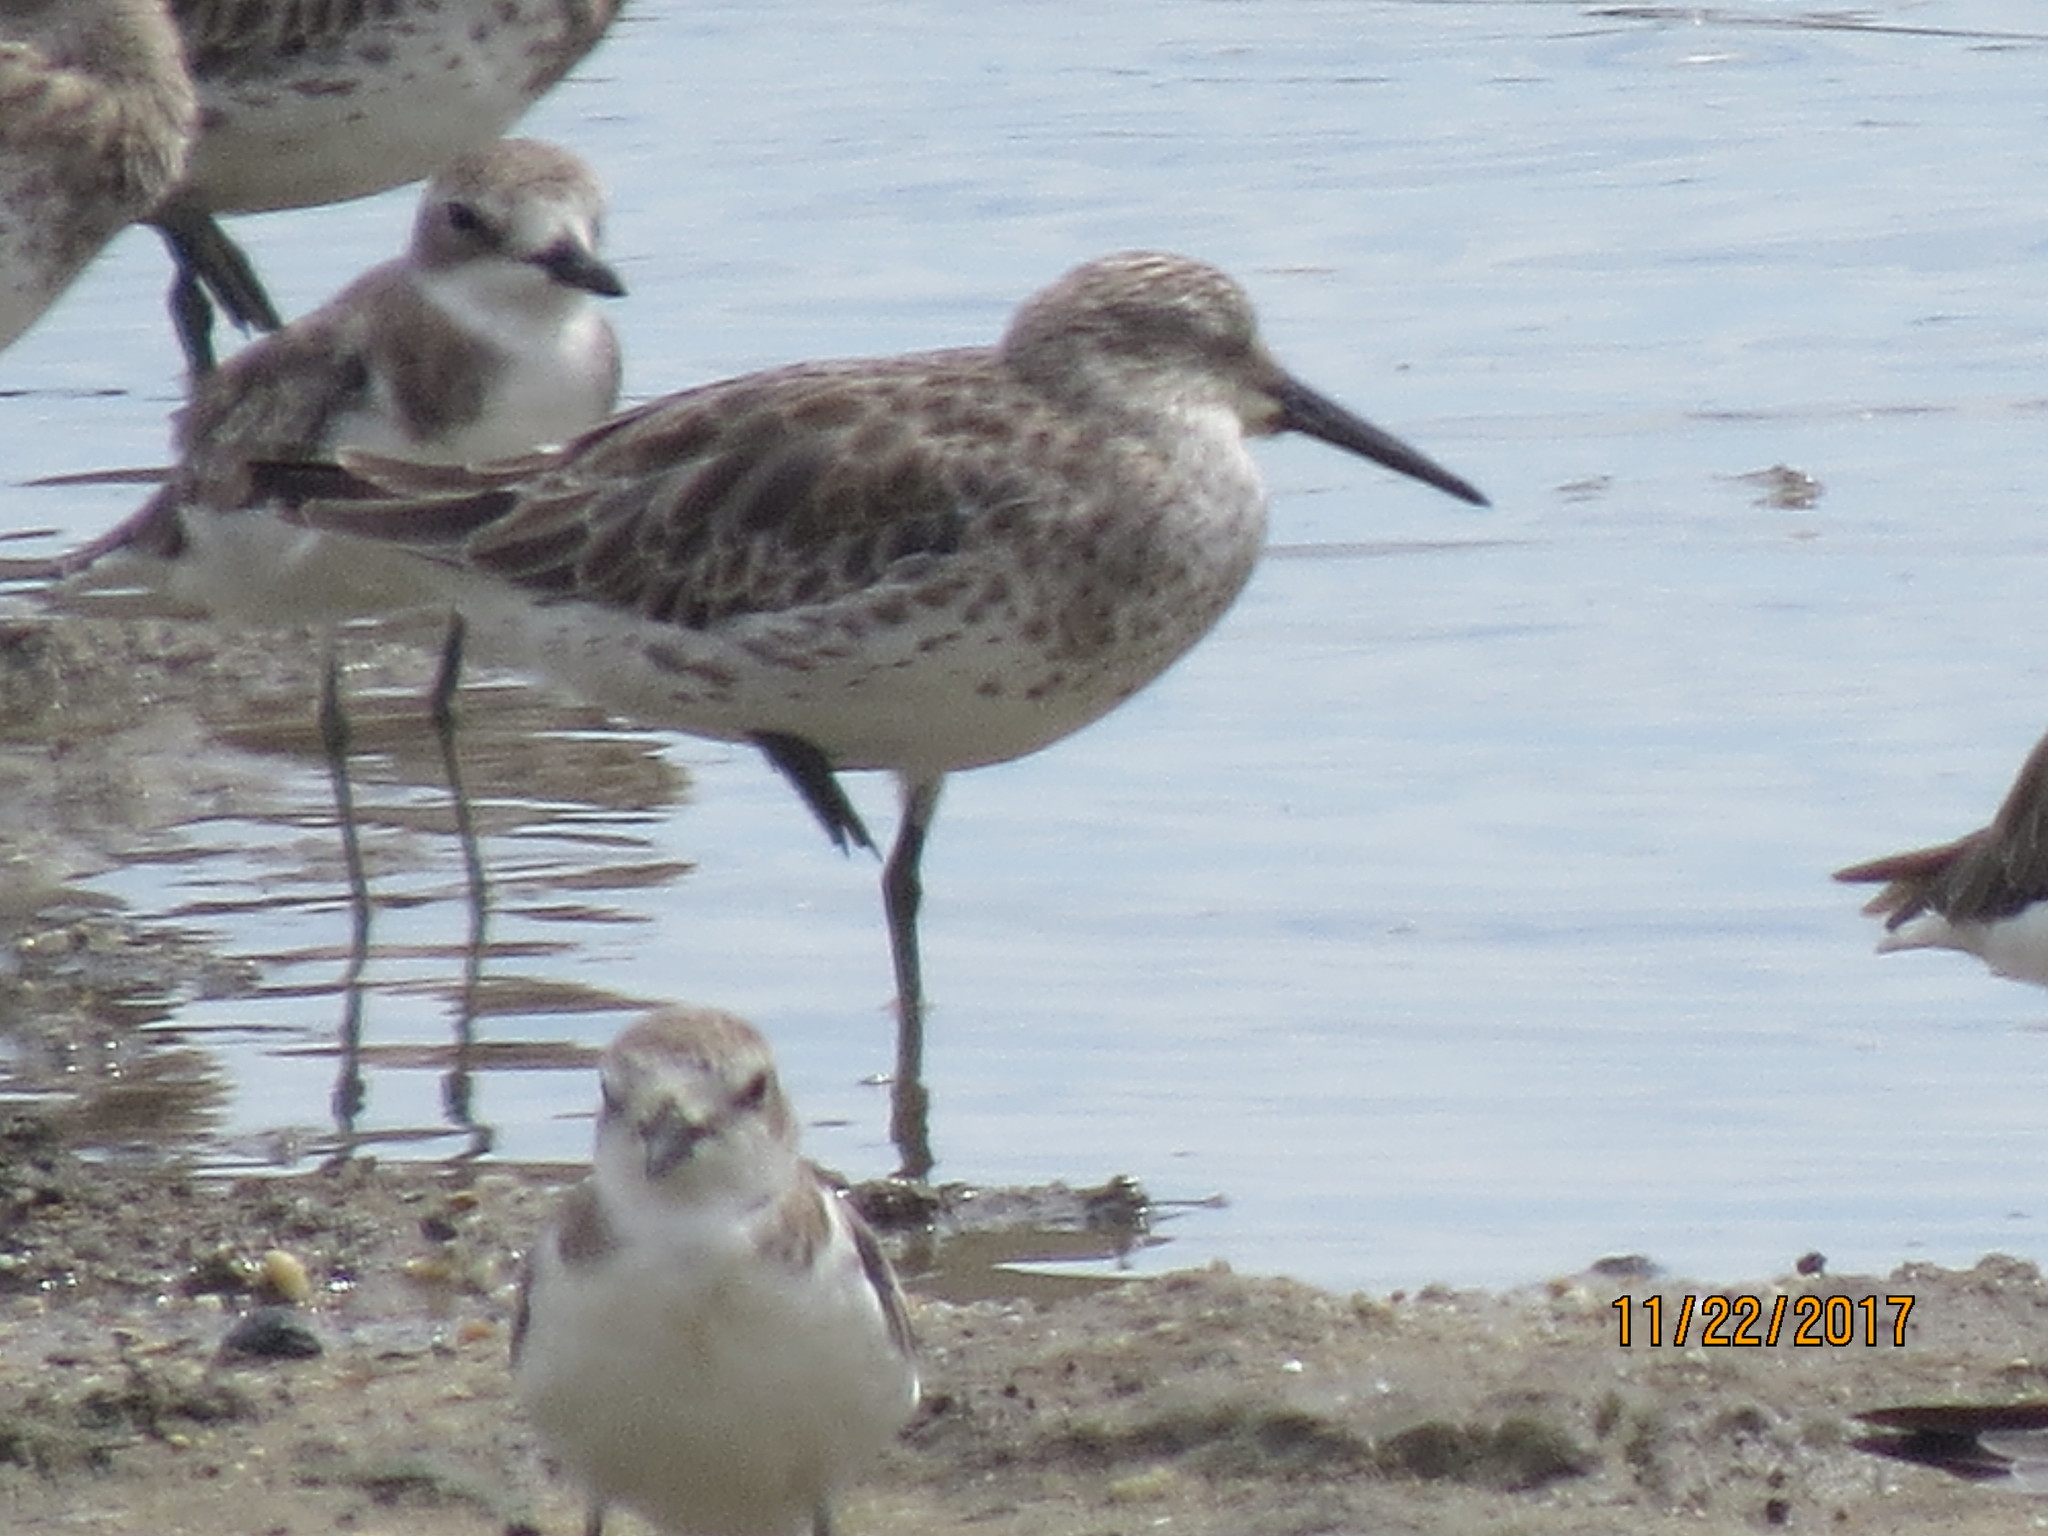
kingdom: Animalia
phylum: Chordata
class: Aves
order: Charadriiformes
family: Scolopacidae
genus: Calidris
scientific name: Calidris tenuirostris
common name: Great knot
